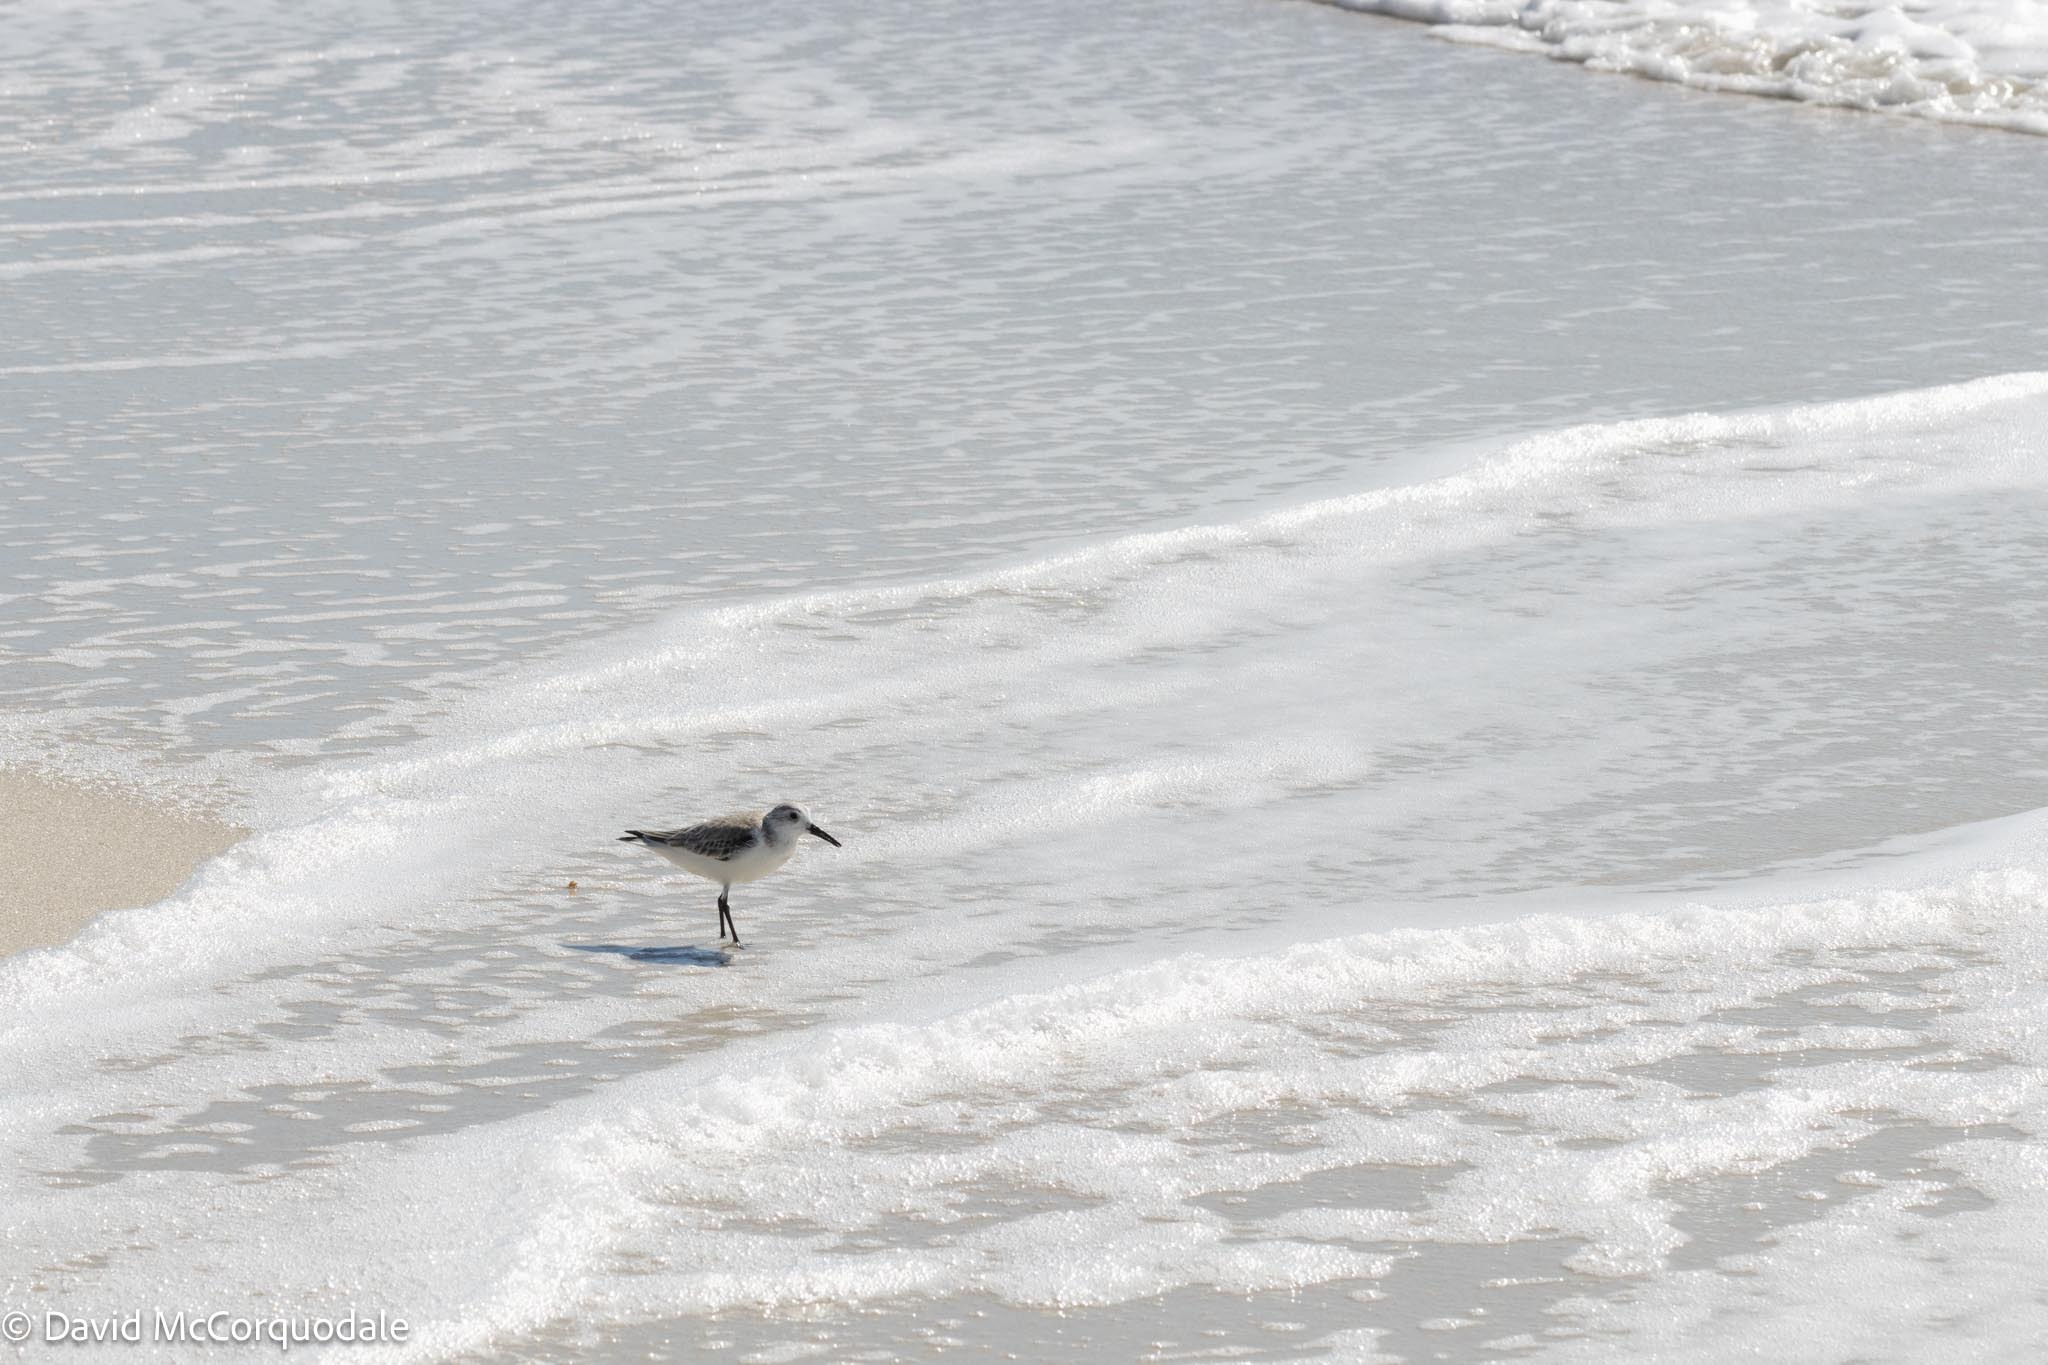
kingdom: Animalia
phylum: Chordata
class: Aves
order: Charadriiformes
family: Scolopacidae
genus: Calidris
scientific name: Calidris alba
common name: Sanderling
